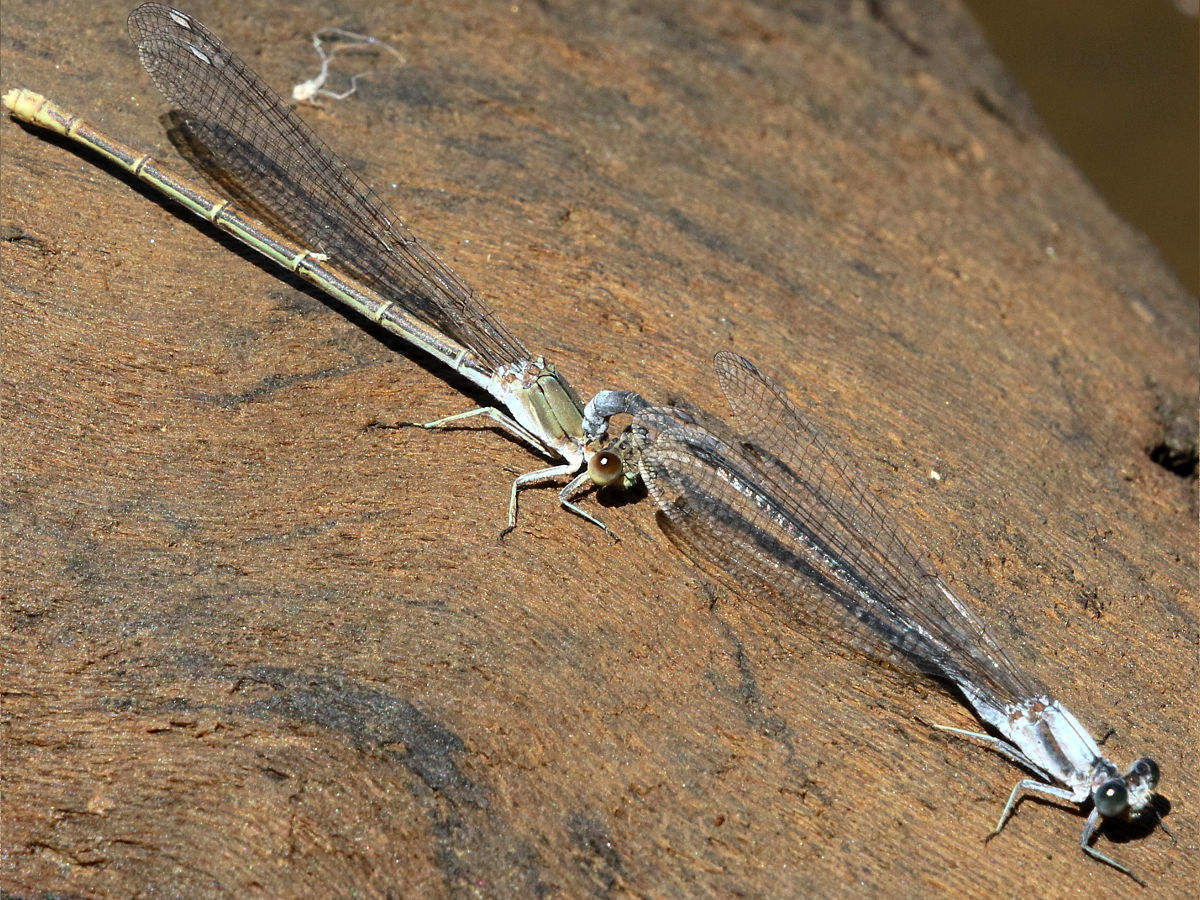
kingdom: Animalia
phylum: Arthropoda
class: Insecta
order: Odonata
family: Coenagrionidae
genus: Argia
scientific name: Argia moesta
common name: Powdered dancer
